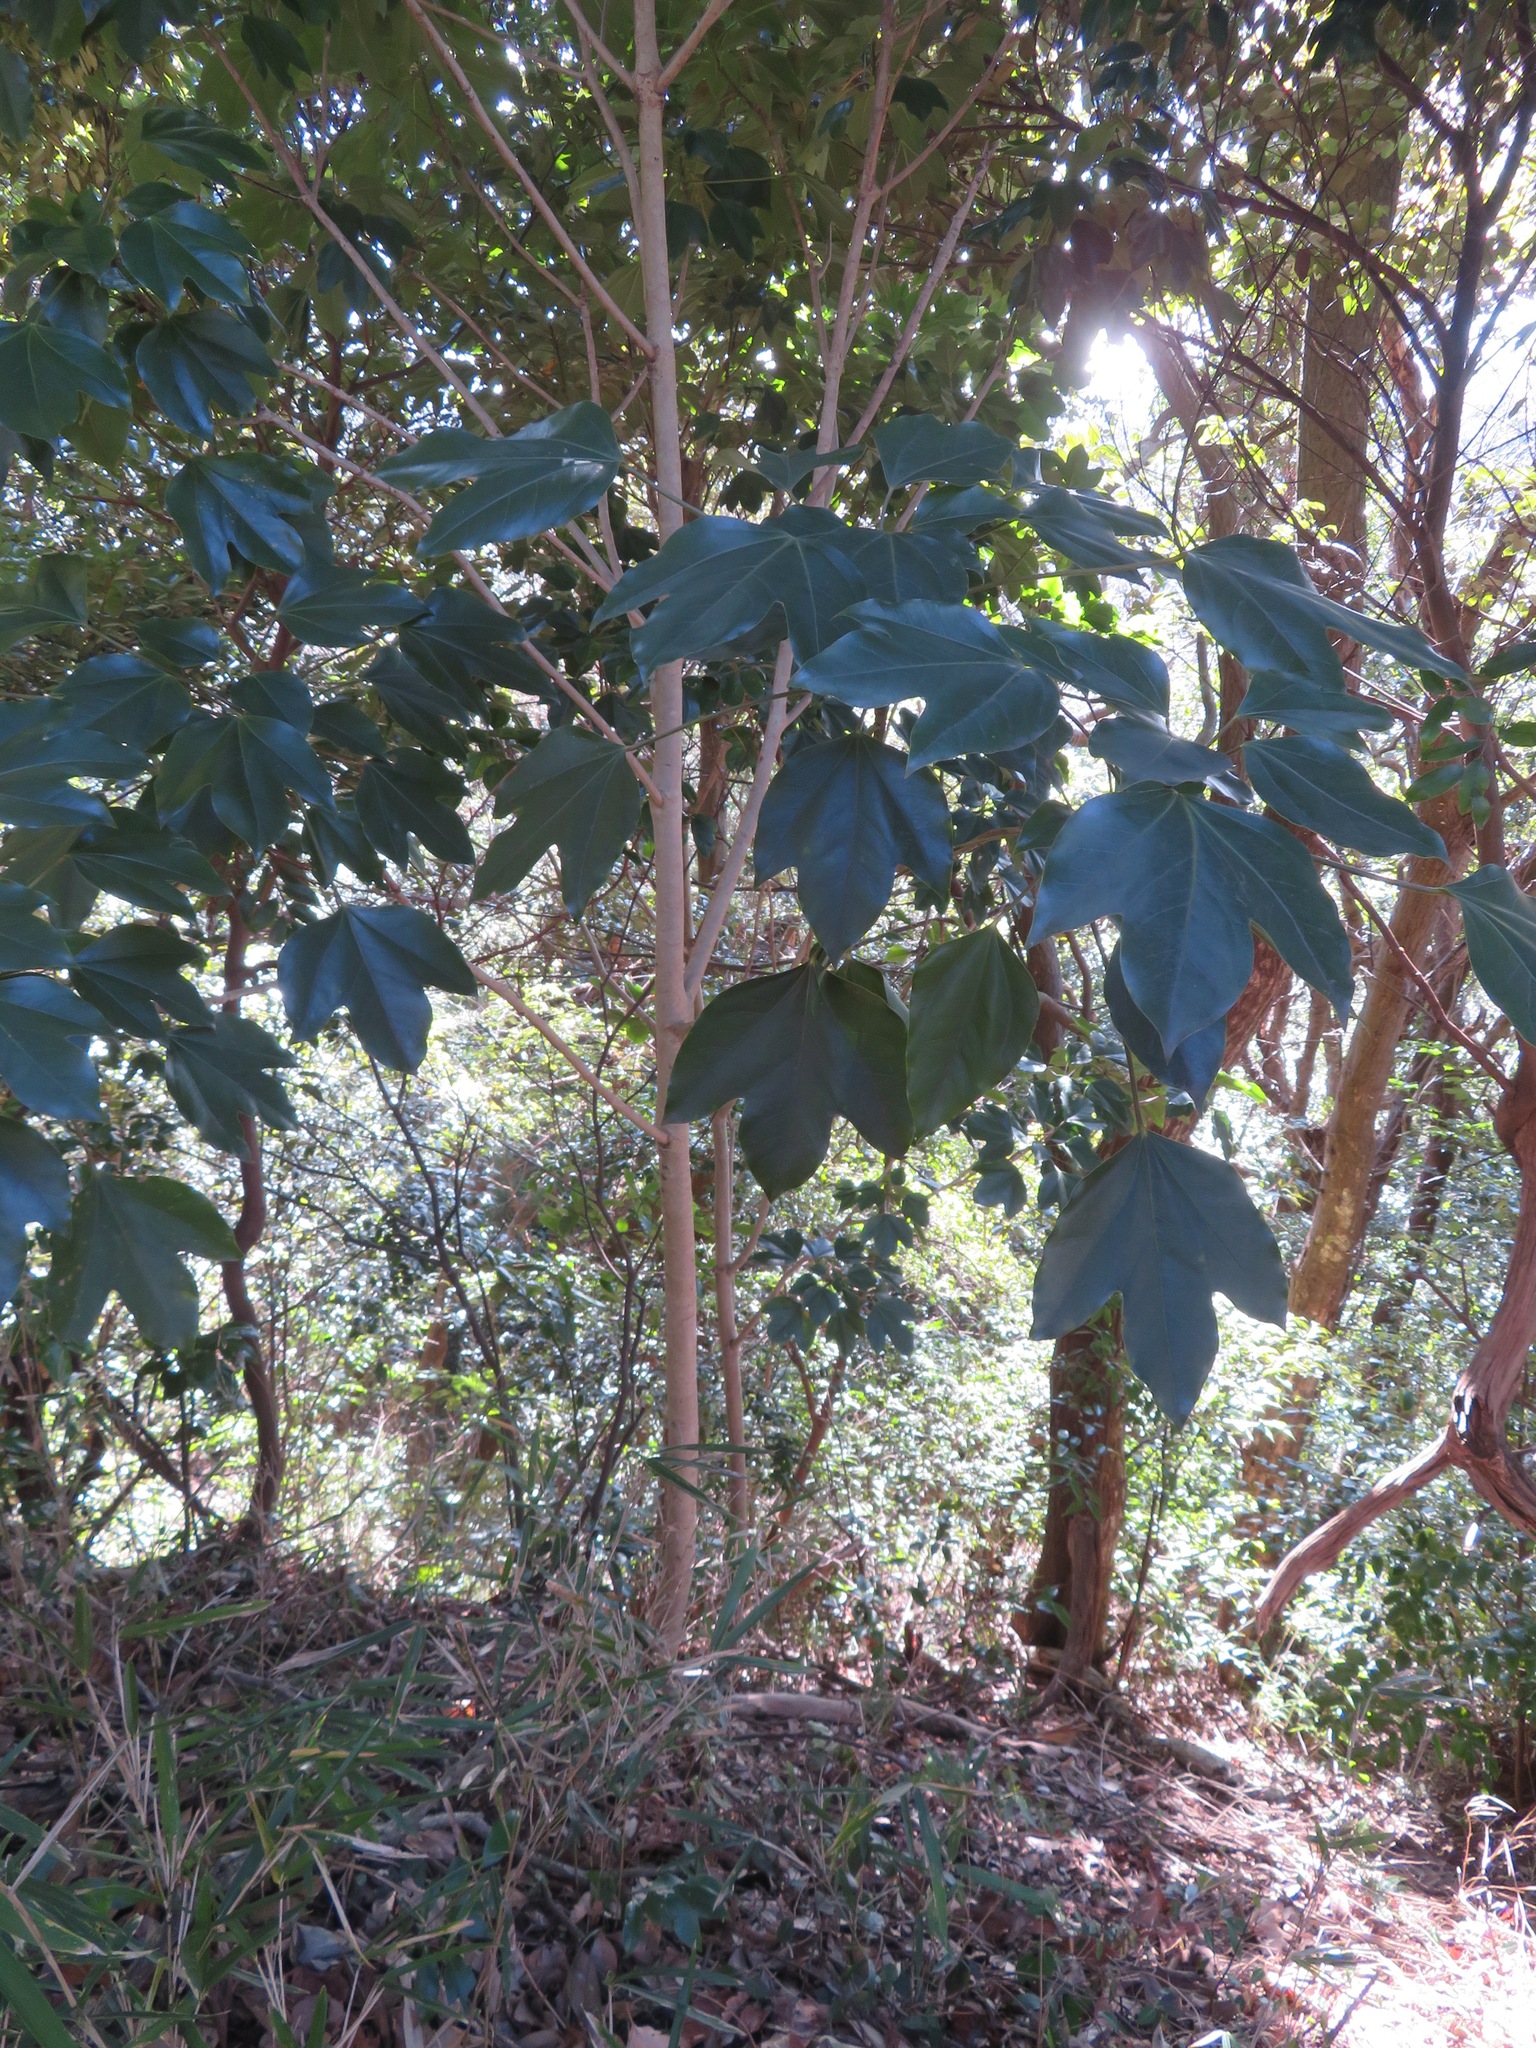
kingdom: Plantae
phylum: Tracheophyta
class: Magnoliopsida
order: Apiales
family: Araliaceae
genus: Dendropanax
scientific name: Dendropanax trifidus
